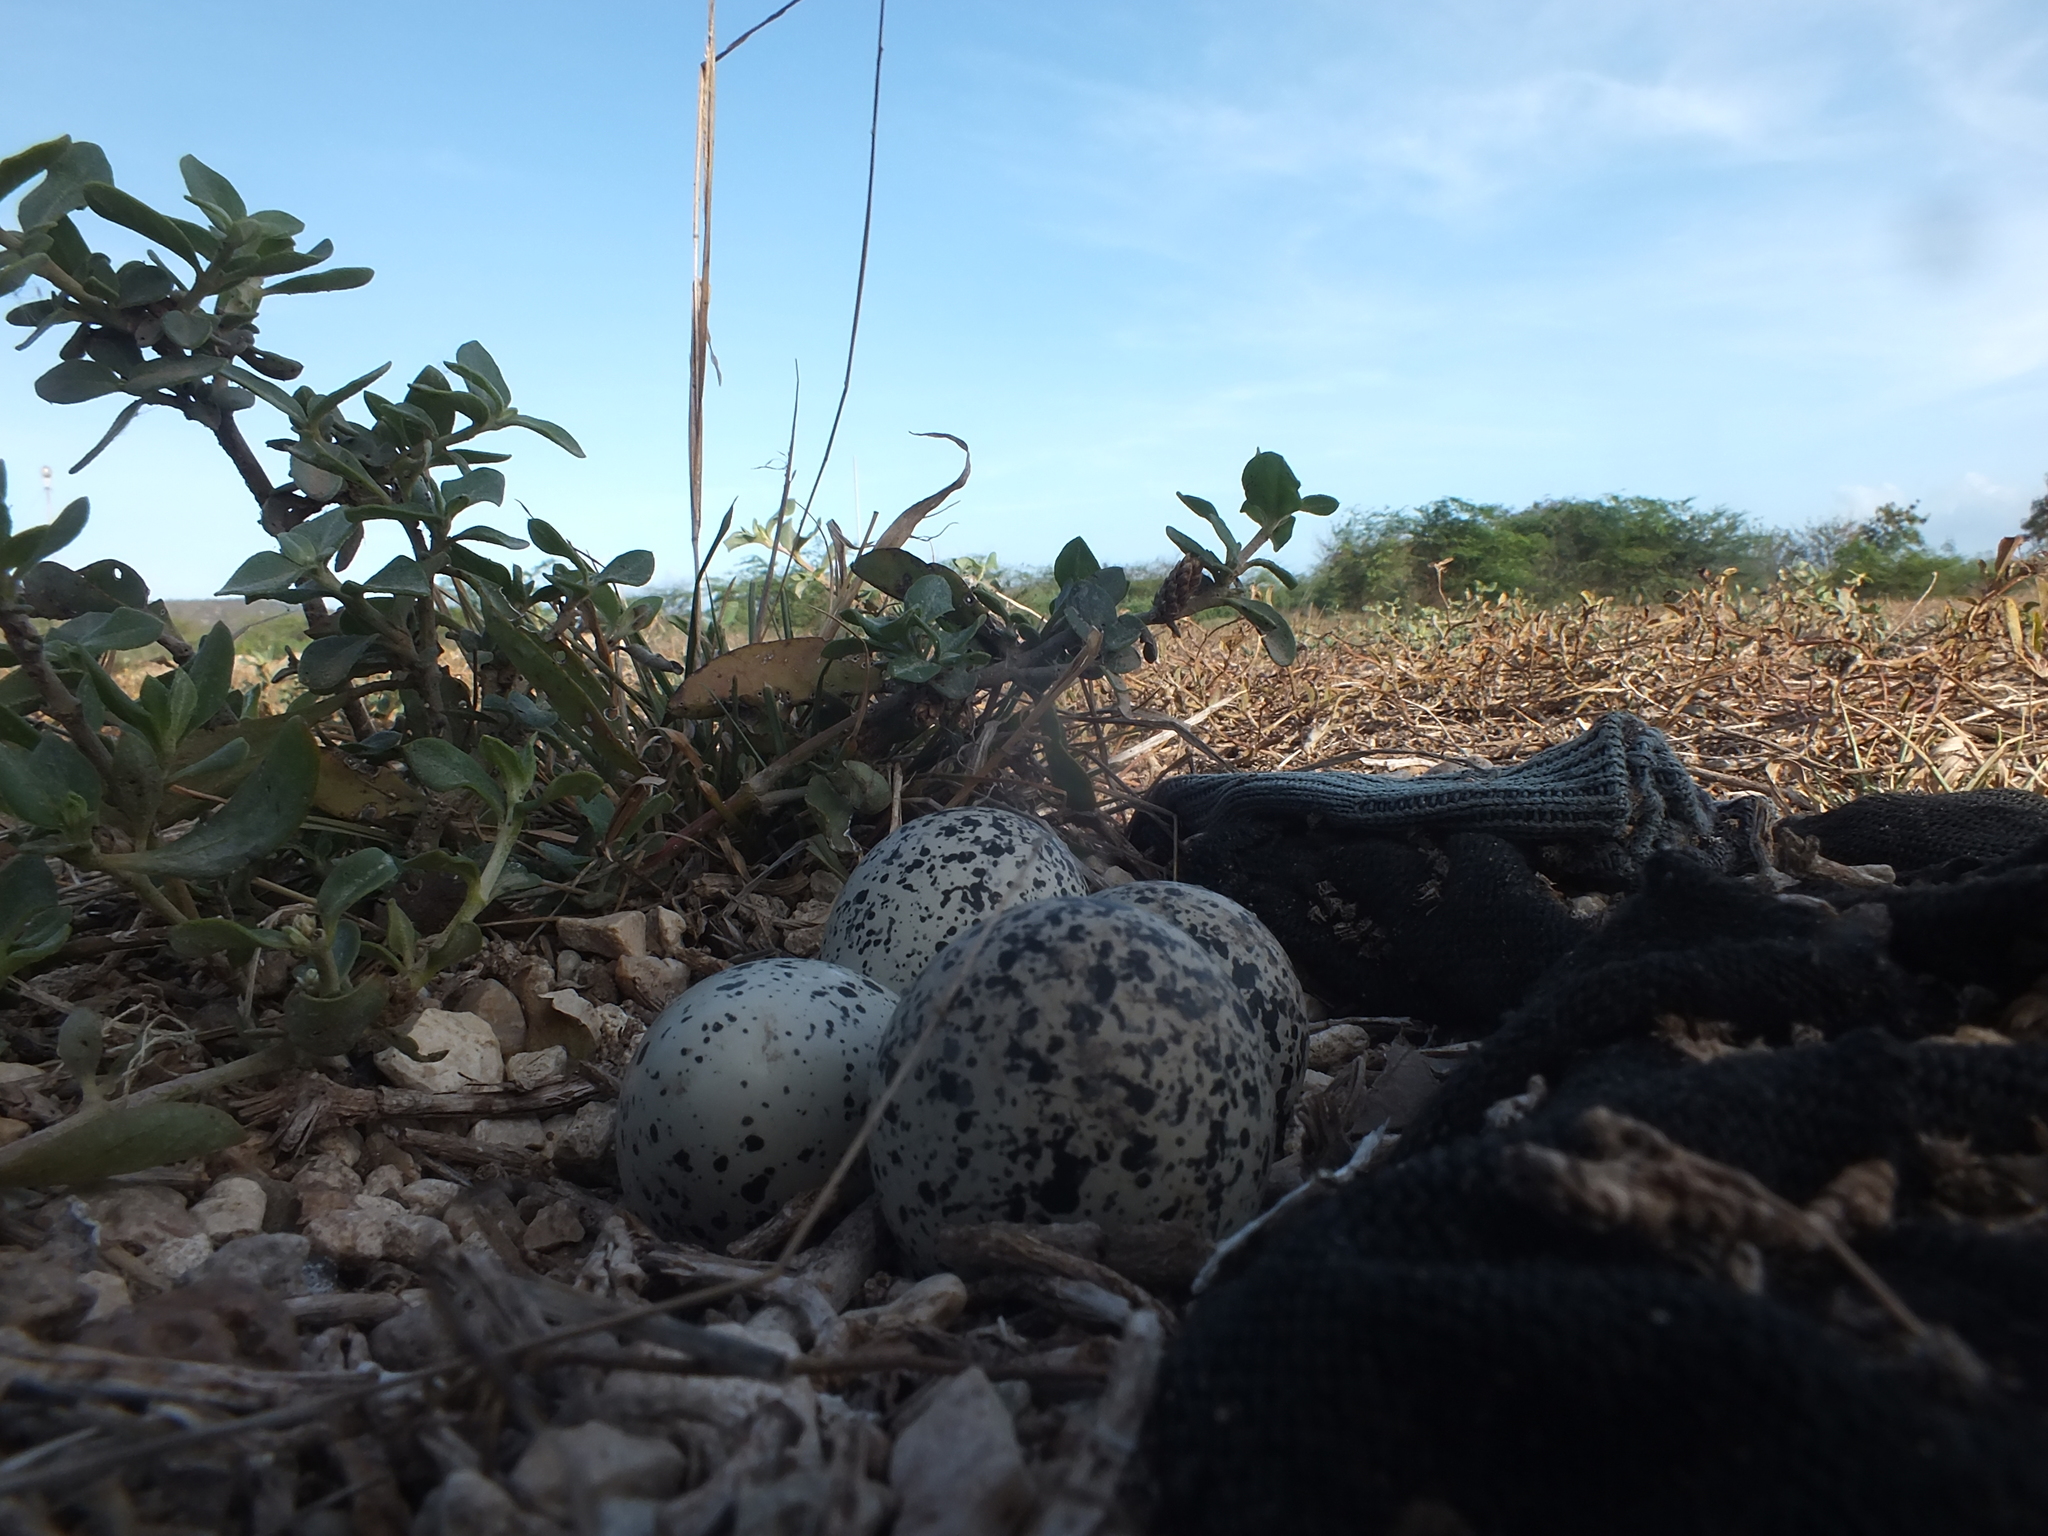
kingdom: Animalia
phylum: Chordata
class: Aves
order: Charadriiformes
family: Charadriidae
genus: Charadrius
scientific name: Charadrius vociferus
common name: Killdeer
